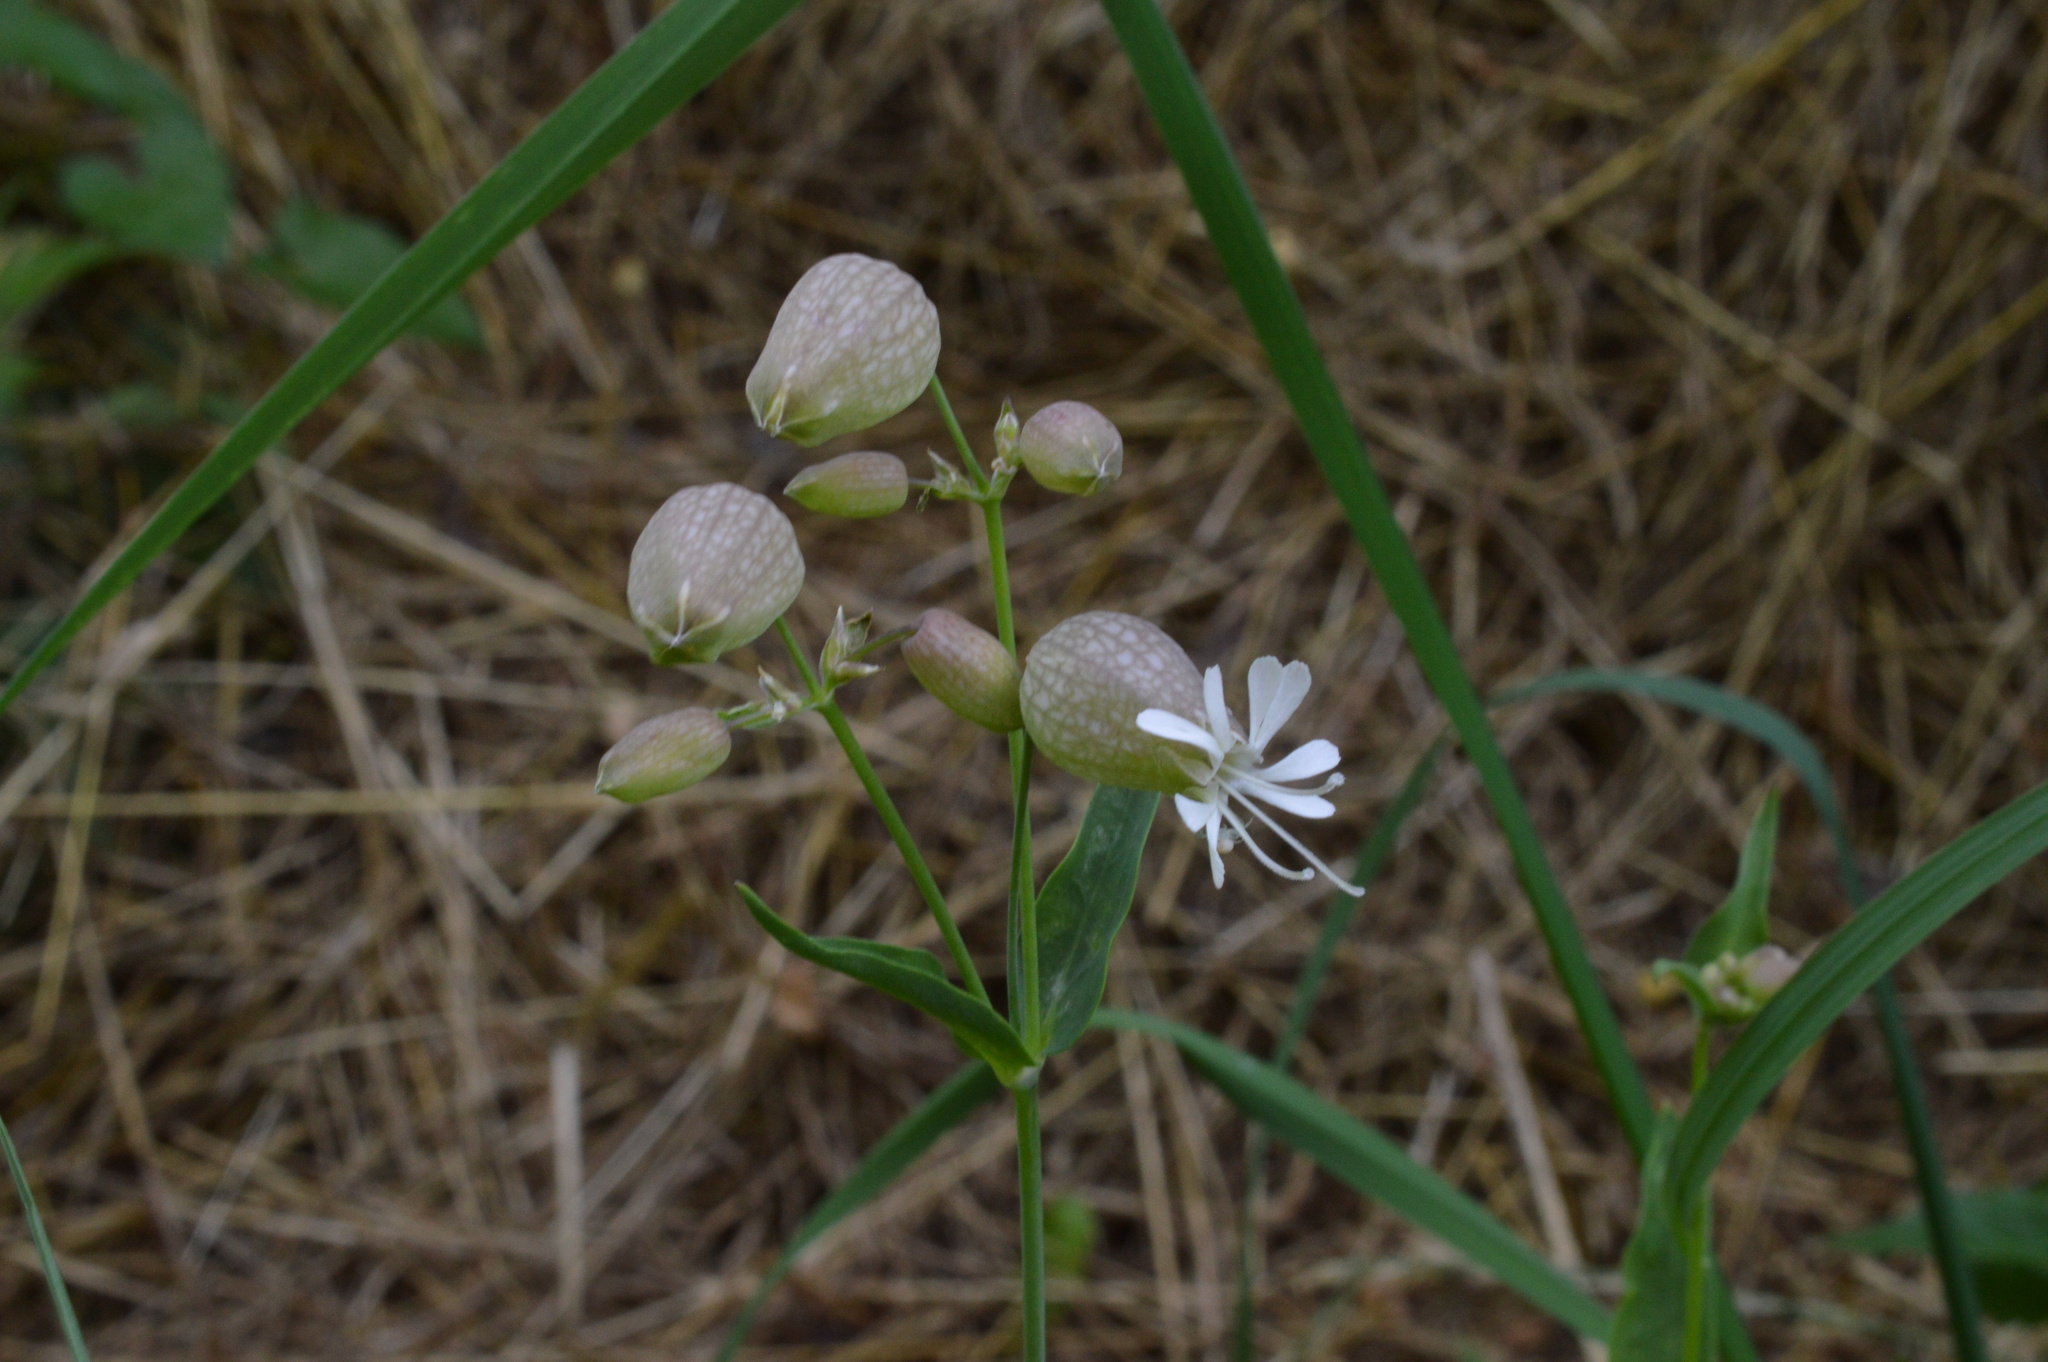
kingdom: Plantae
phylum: Tracheophyta
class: Magnoliopsida
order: Caryophyllales
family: Caryophyllaceae
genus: Silene
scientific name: Silene vulgaris
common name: Bladder campion
